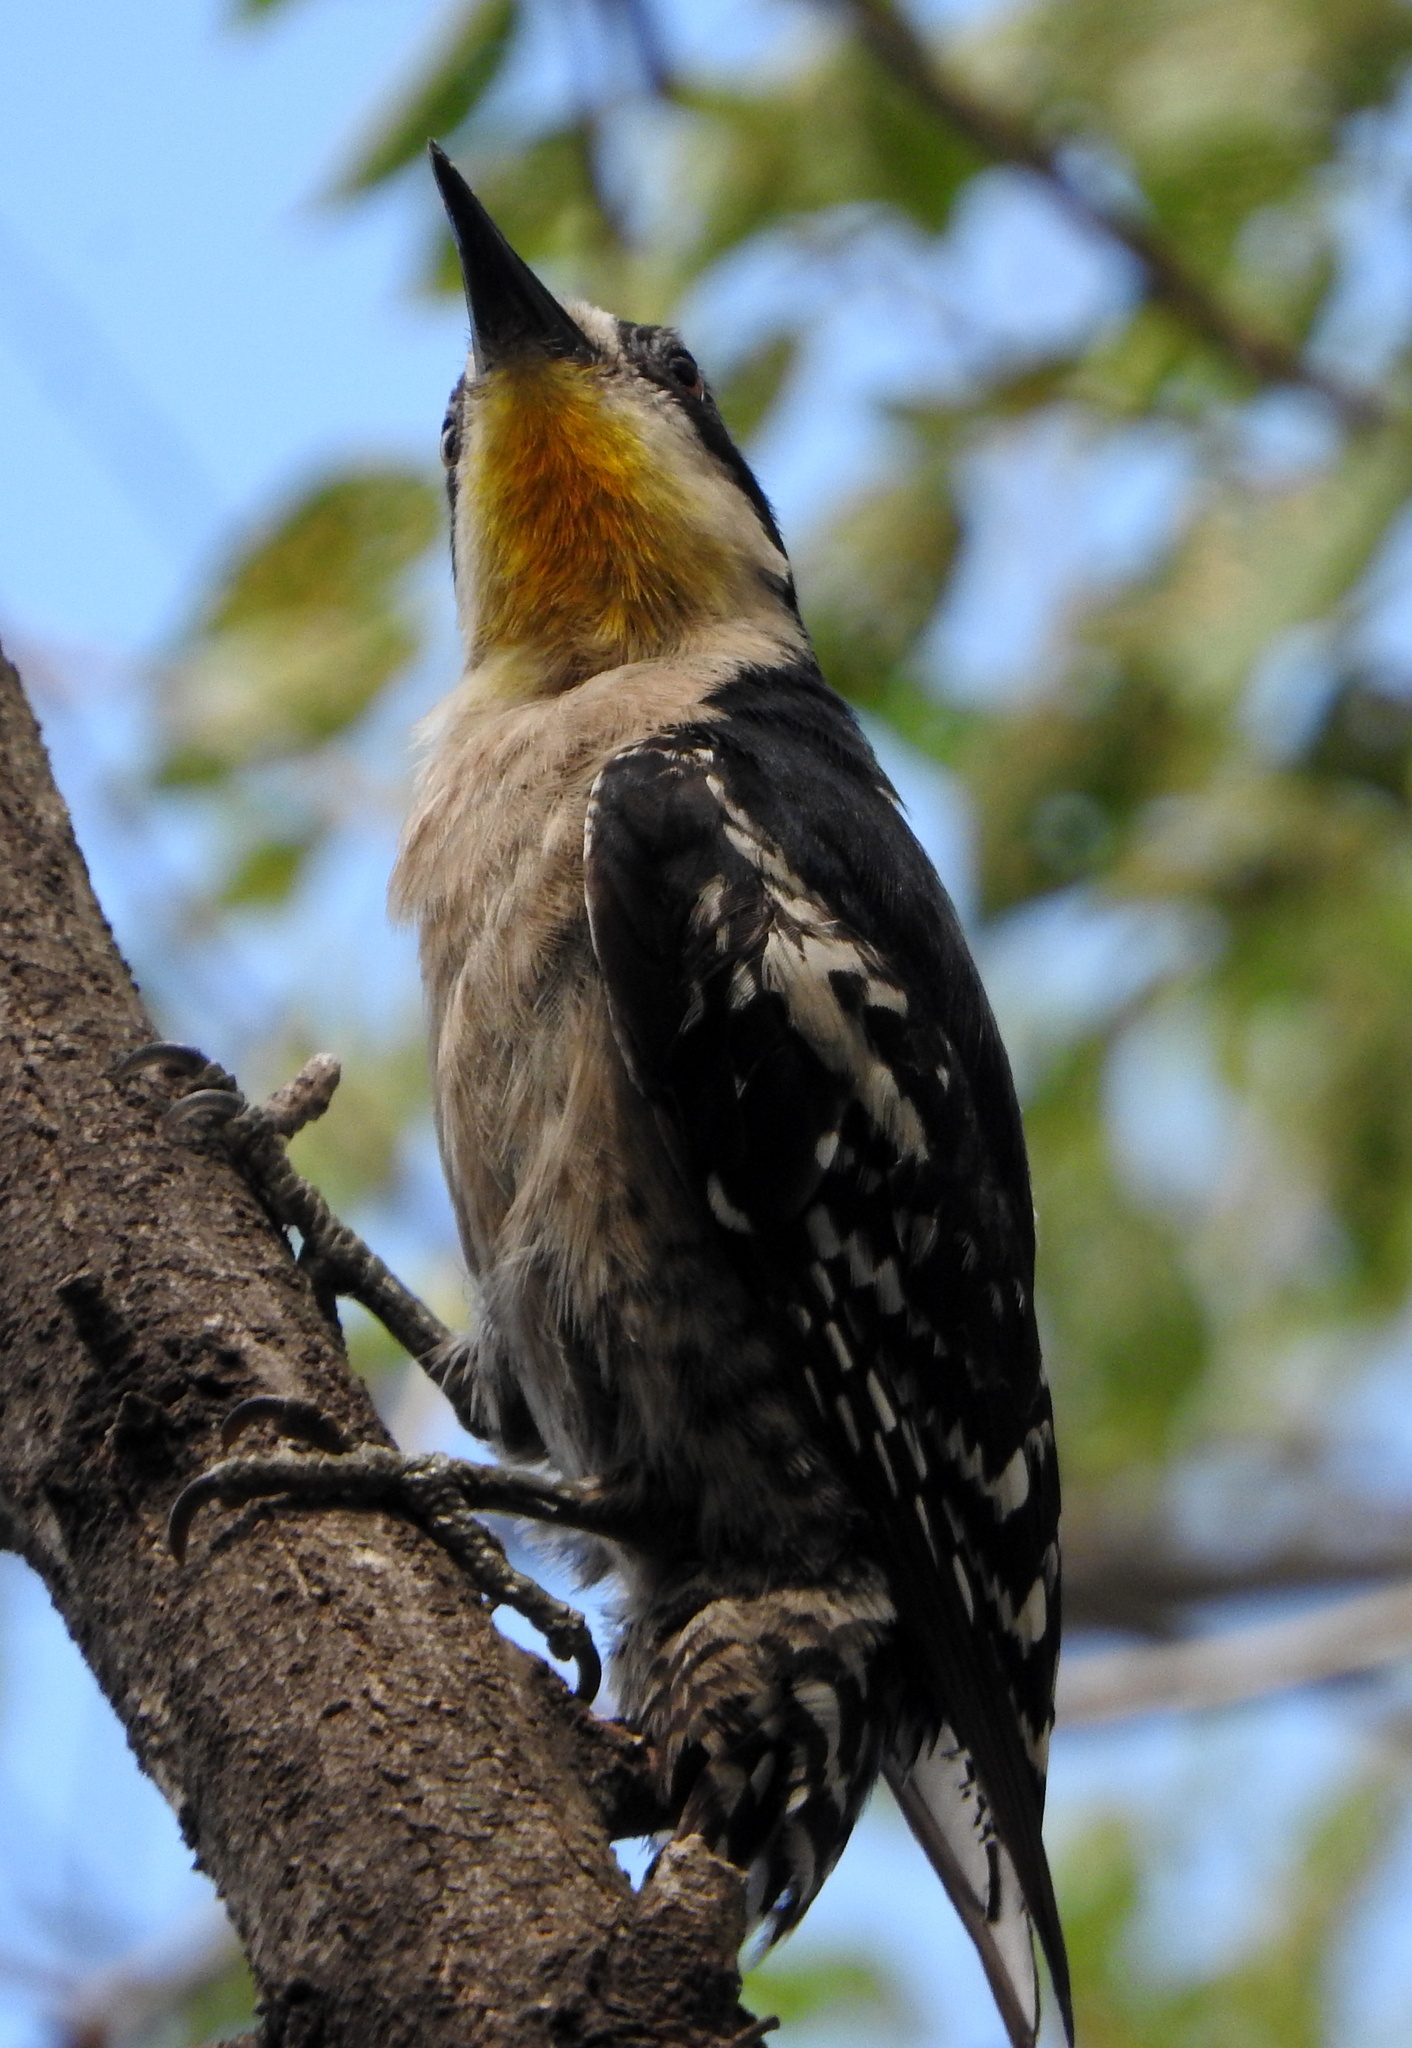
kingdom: Animalia
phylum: Chordata
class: Aves
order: Piciformes
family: Picidae
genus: Melanerpes
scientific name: Melanerpes cactorum
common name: White-fronted woodpecker
